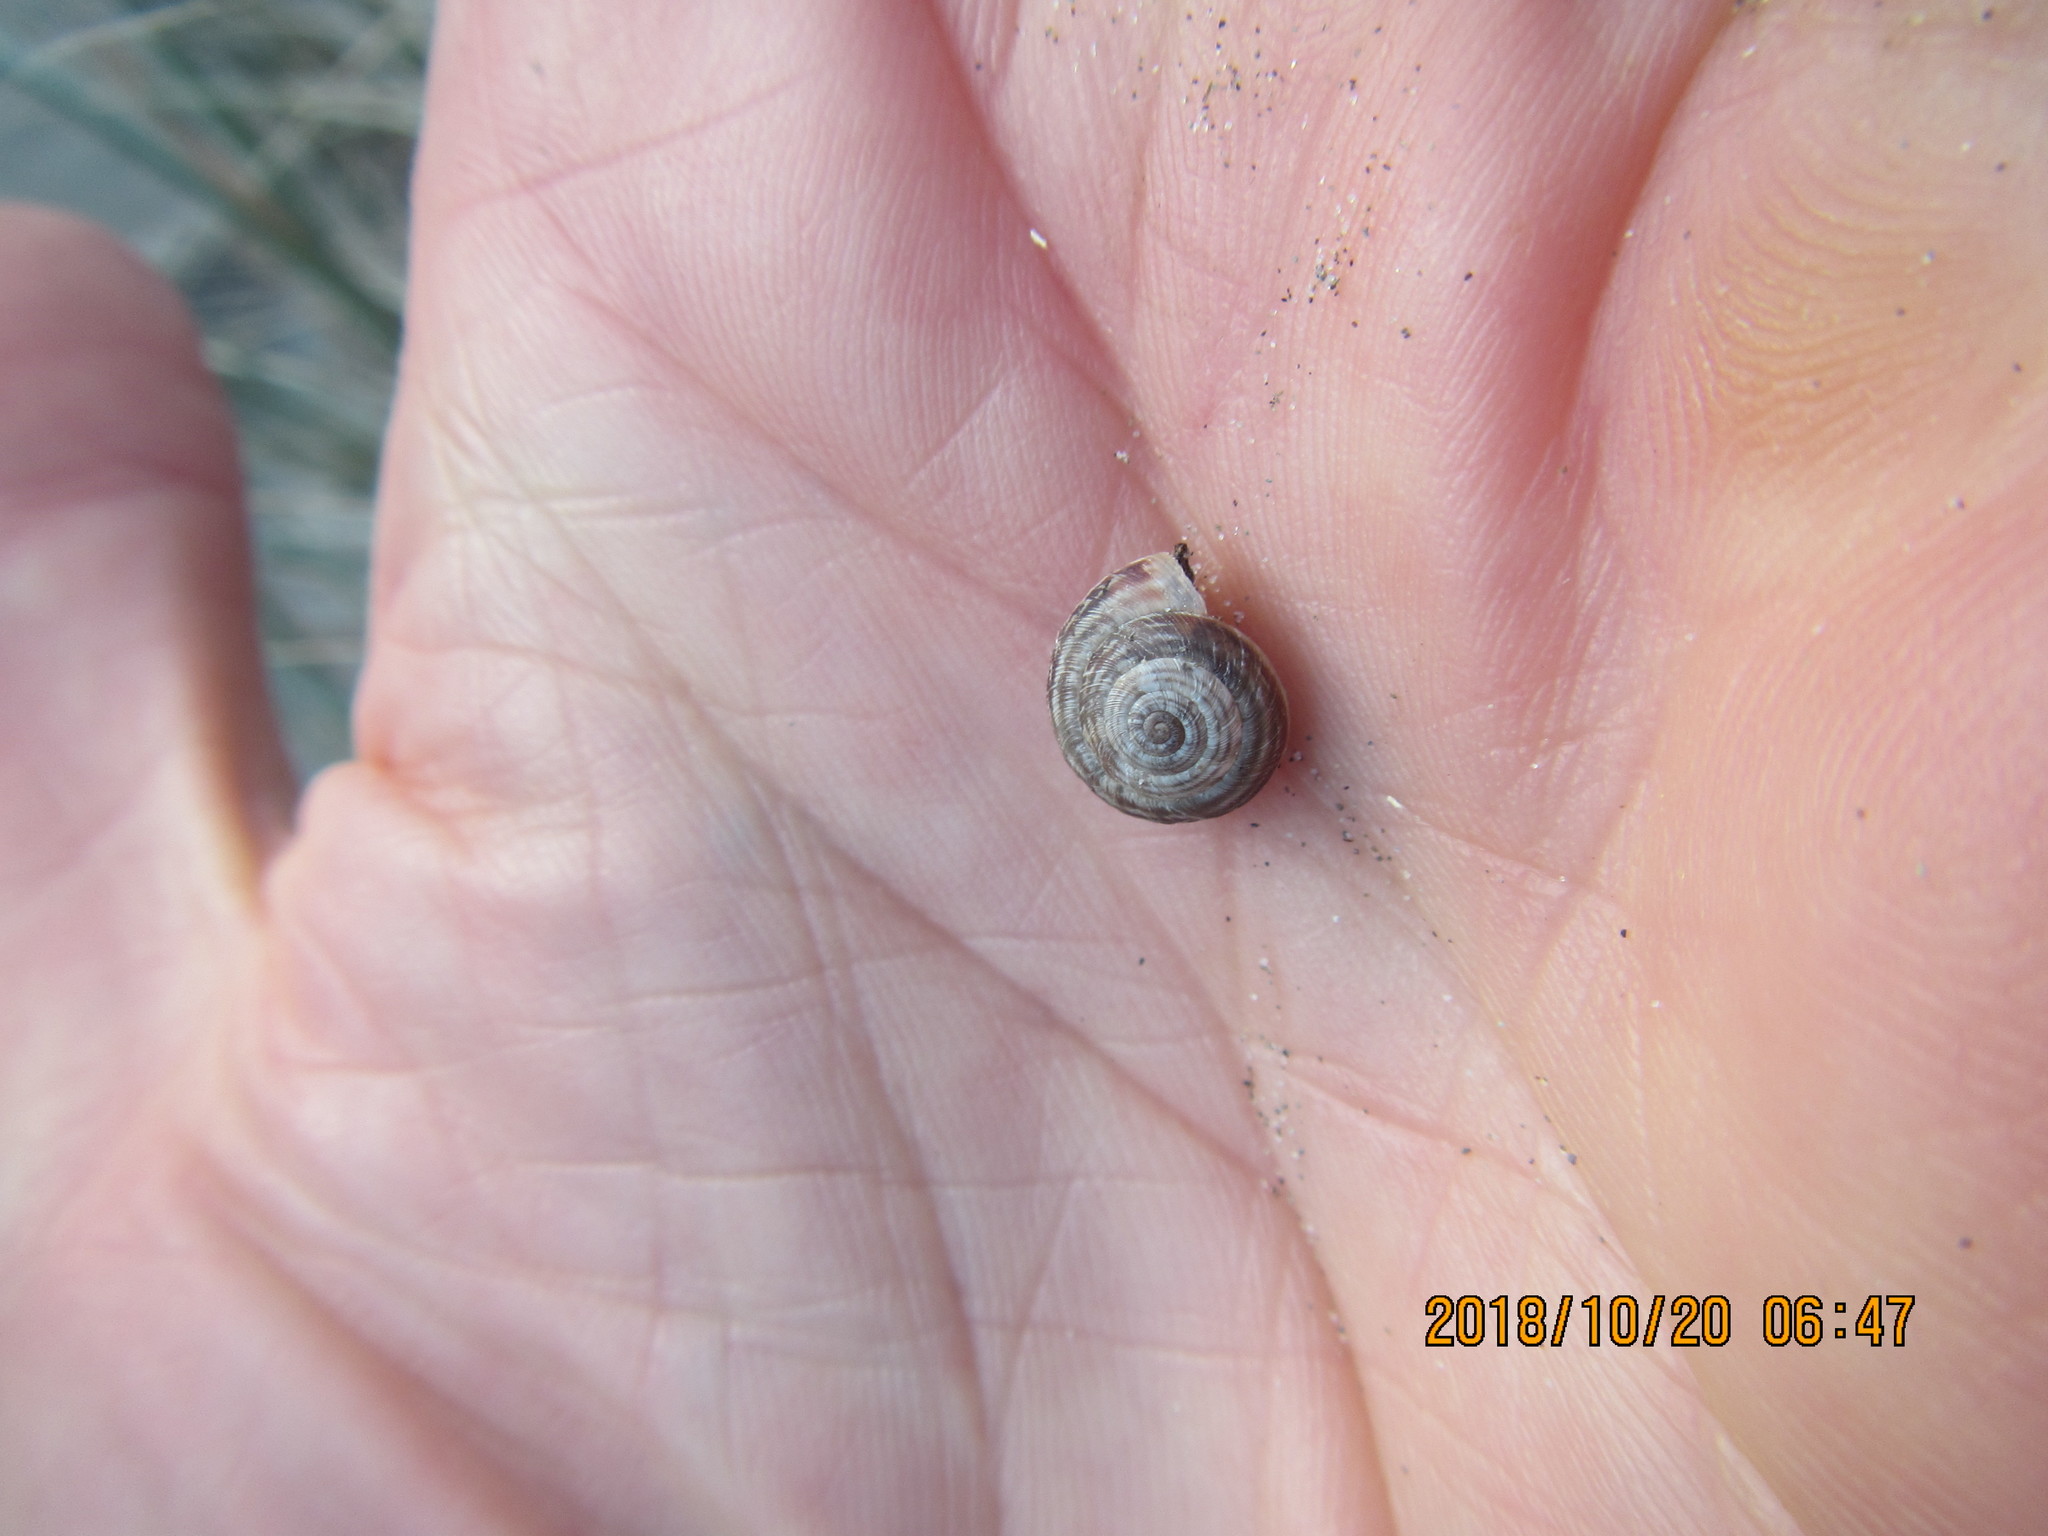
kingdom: Animalia
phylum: Mollusca
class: Gastropoda
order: Stylommatophora
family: Geomitridae
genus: Xeroplexa
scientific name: Xeroplexa intersecta
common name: Wrinkled snail
